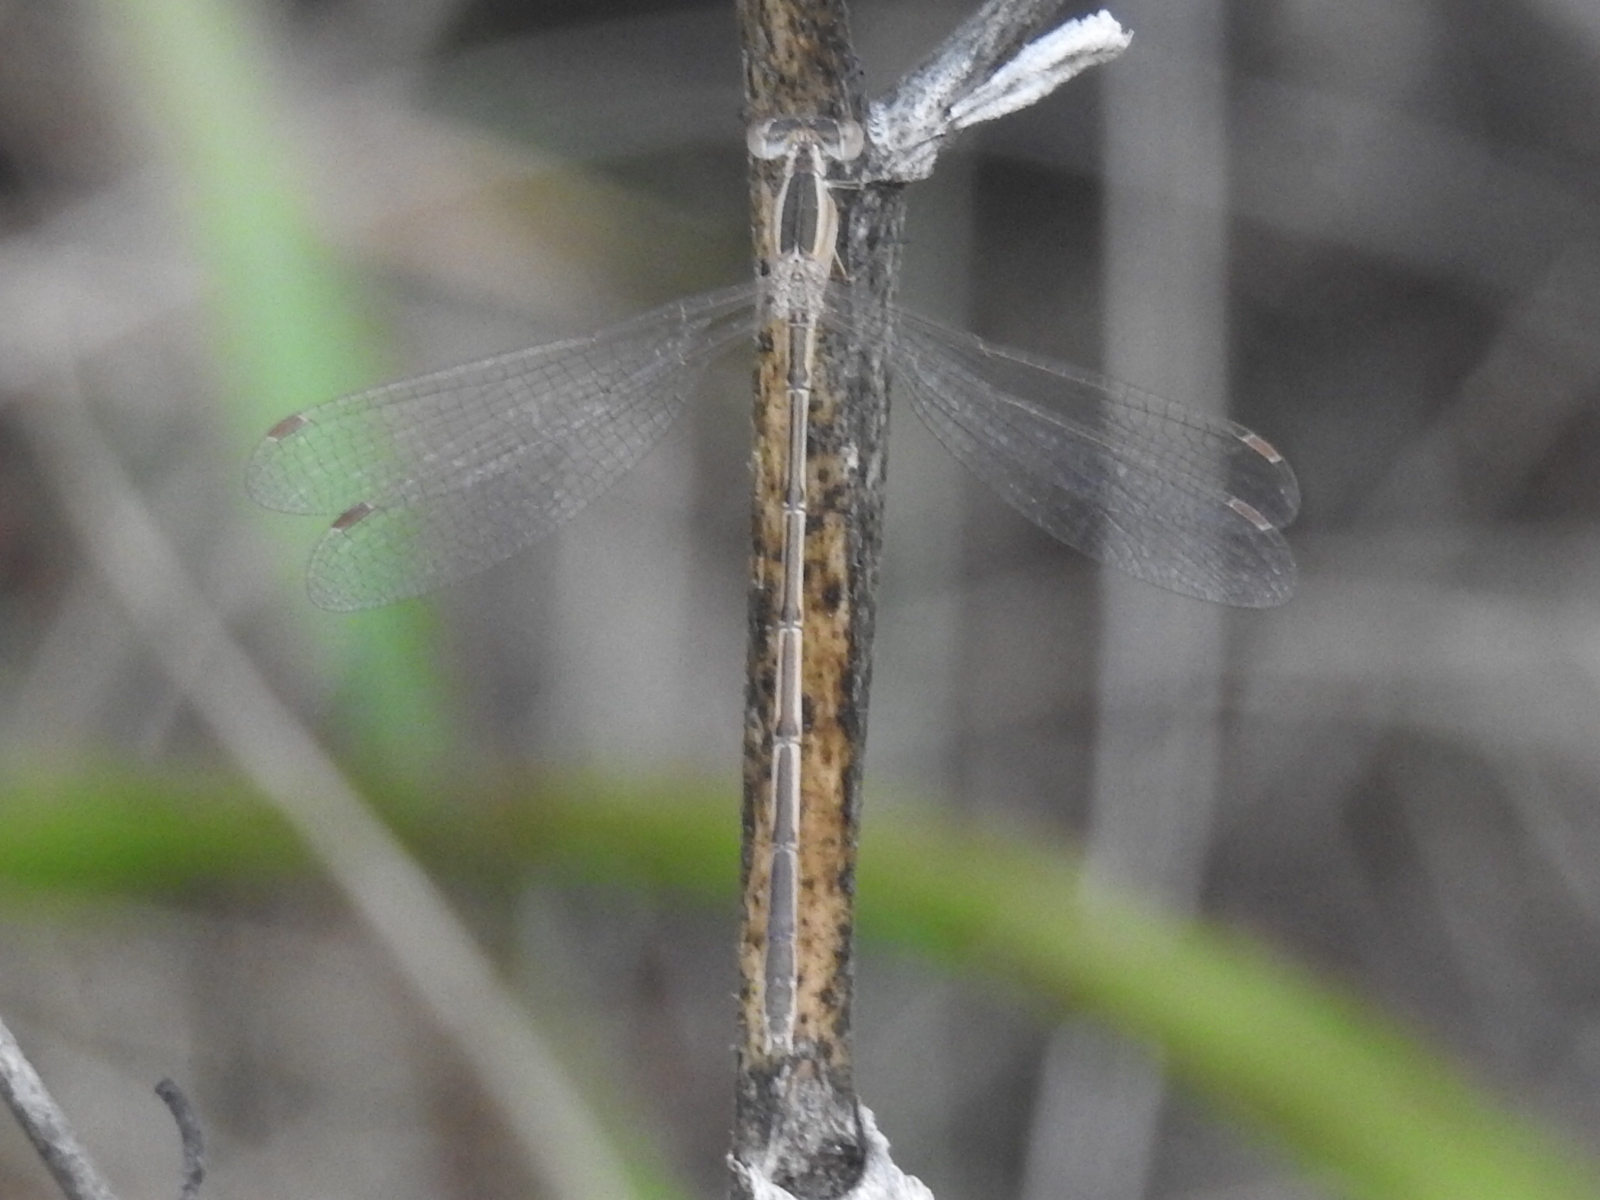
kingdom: Animalia
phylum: Arthropoda
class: Insecta
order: Odonata
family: Lestidae
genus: Lestes
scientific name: Lestes alacer
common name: Plateau spreadwing
